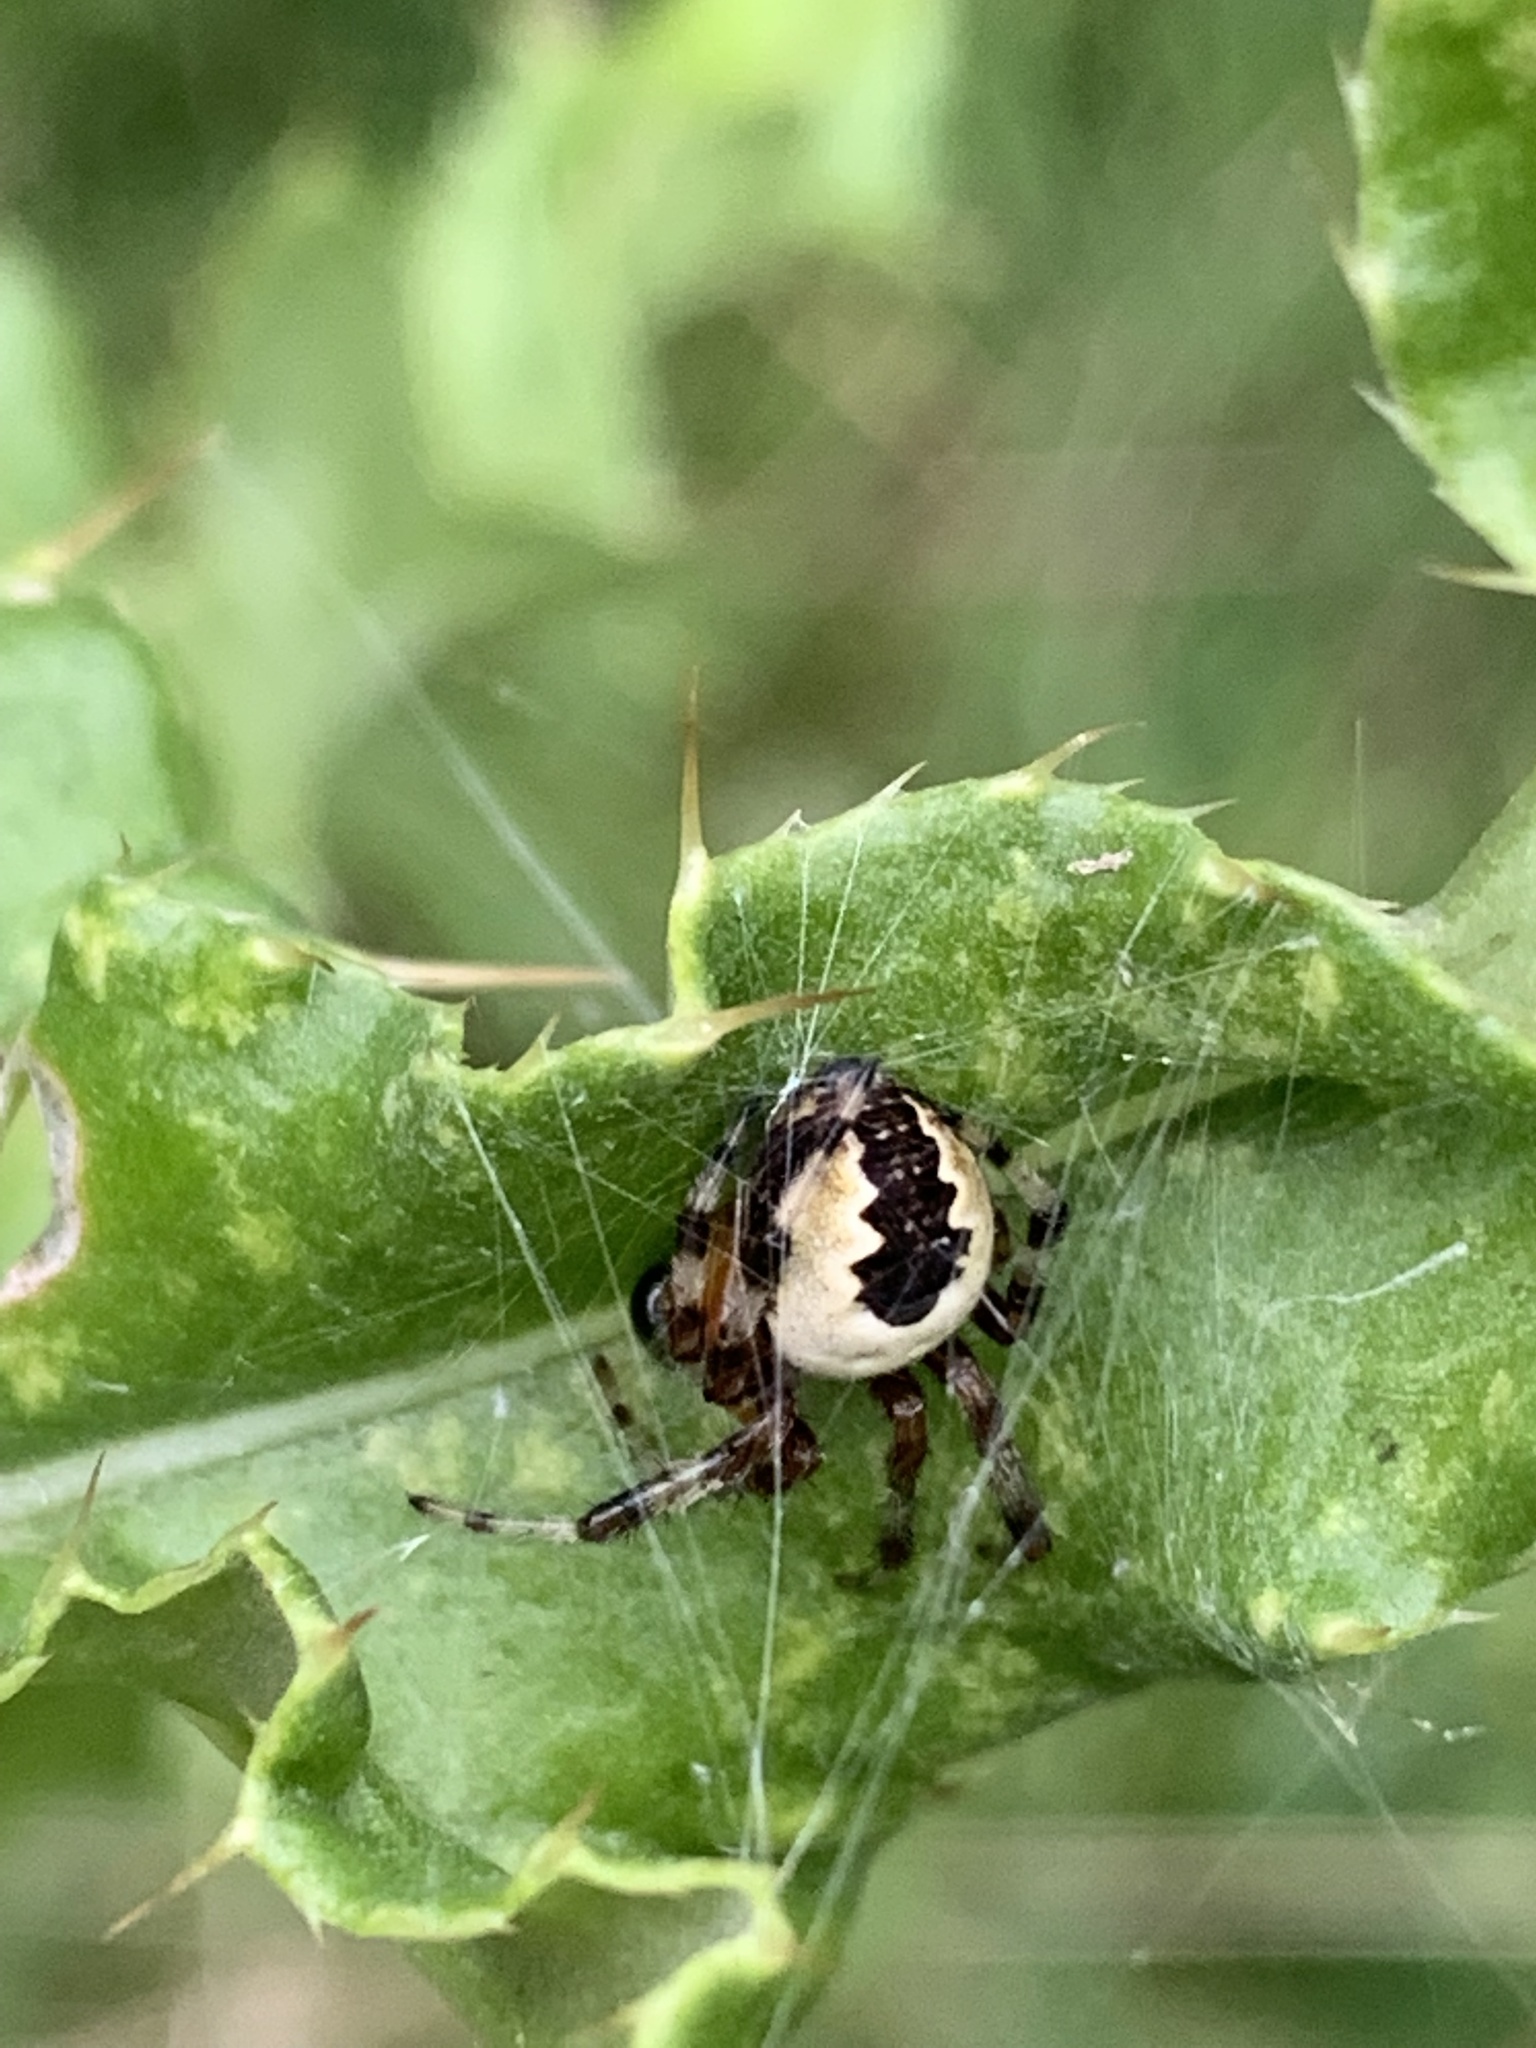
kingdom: Animalia
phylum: Arthropoda
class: Arachnida
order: Araneae
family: Araneidae
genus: Araneus
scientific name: Araneus marmoreus
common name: Marbled orbweaver
